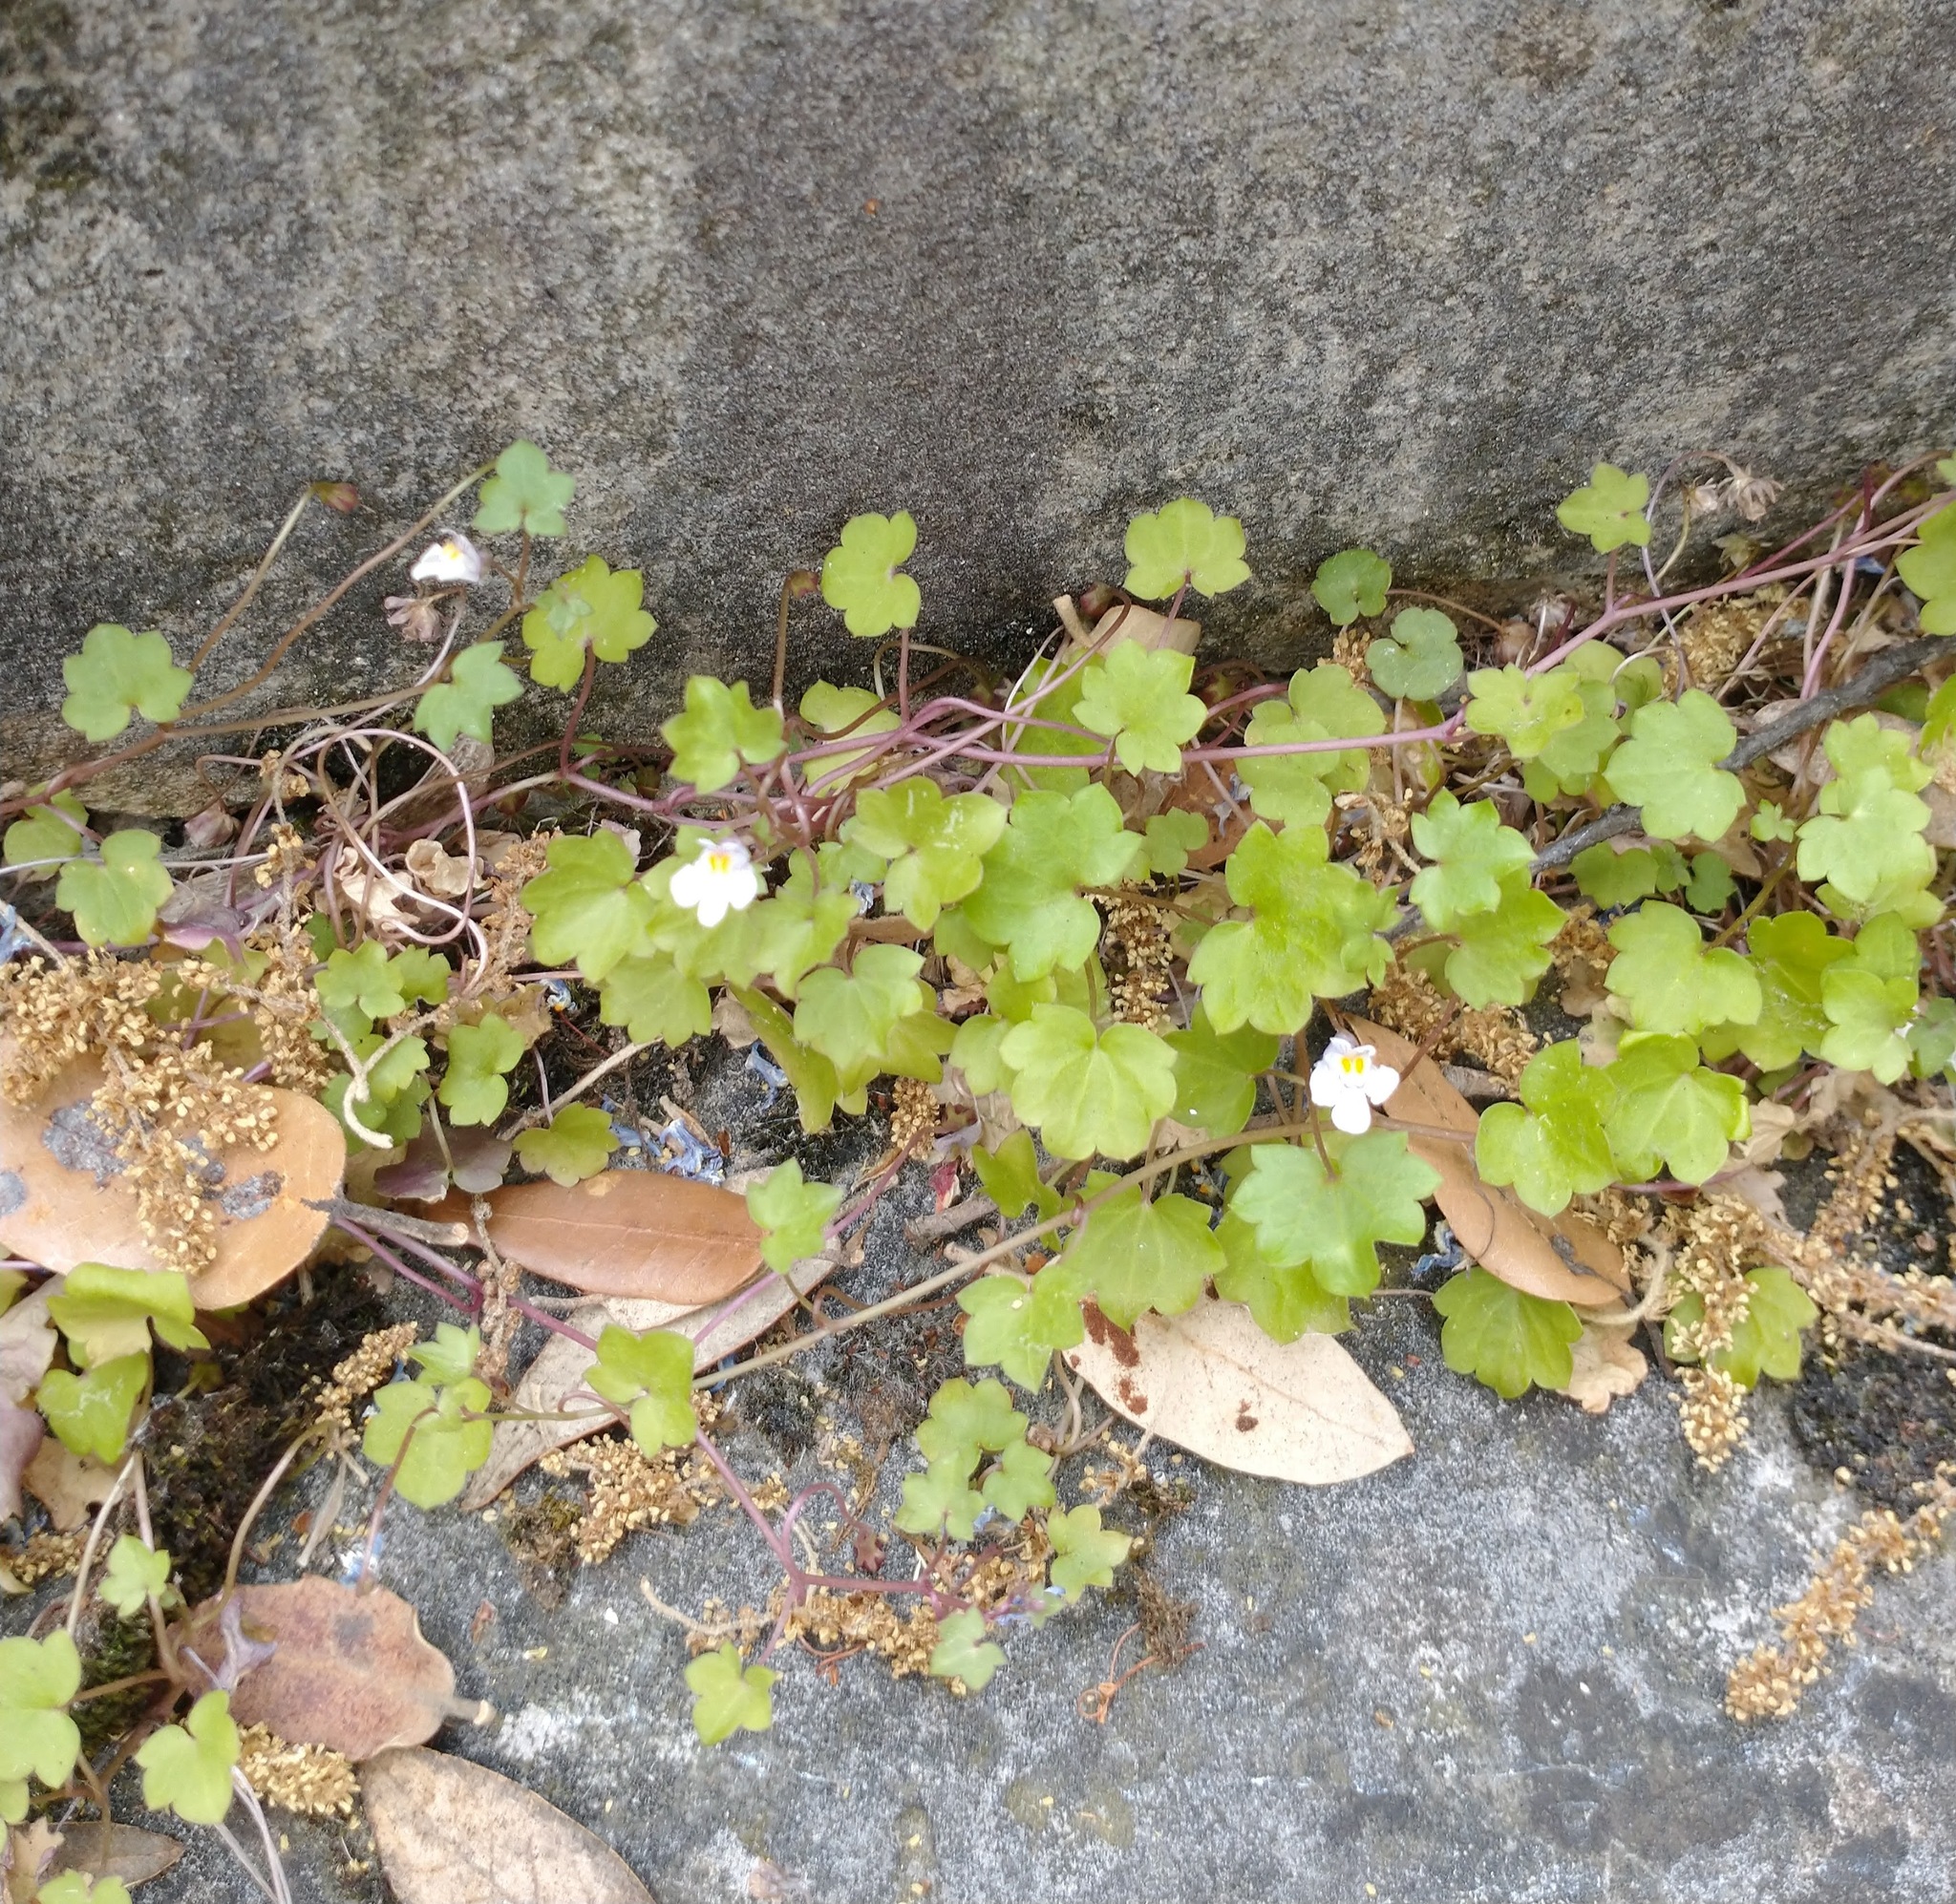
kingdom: Plantae
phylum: Tracheophyta
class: Magnoliopsida
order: Lamiales
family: Plantaginaceae
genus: Cymbalaria
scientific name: Cymbalaria muralis
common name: Ivy-leaved toadflax
